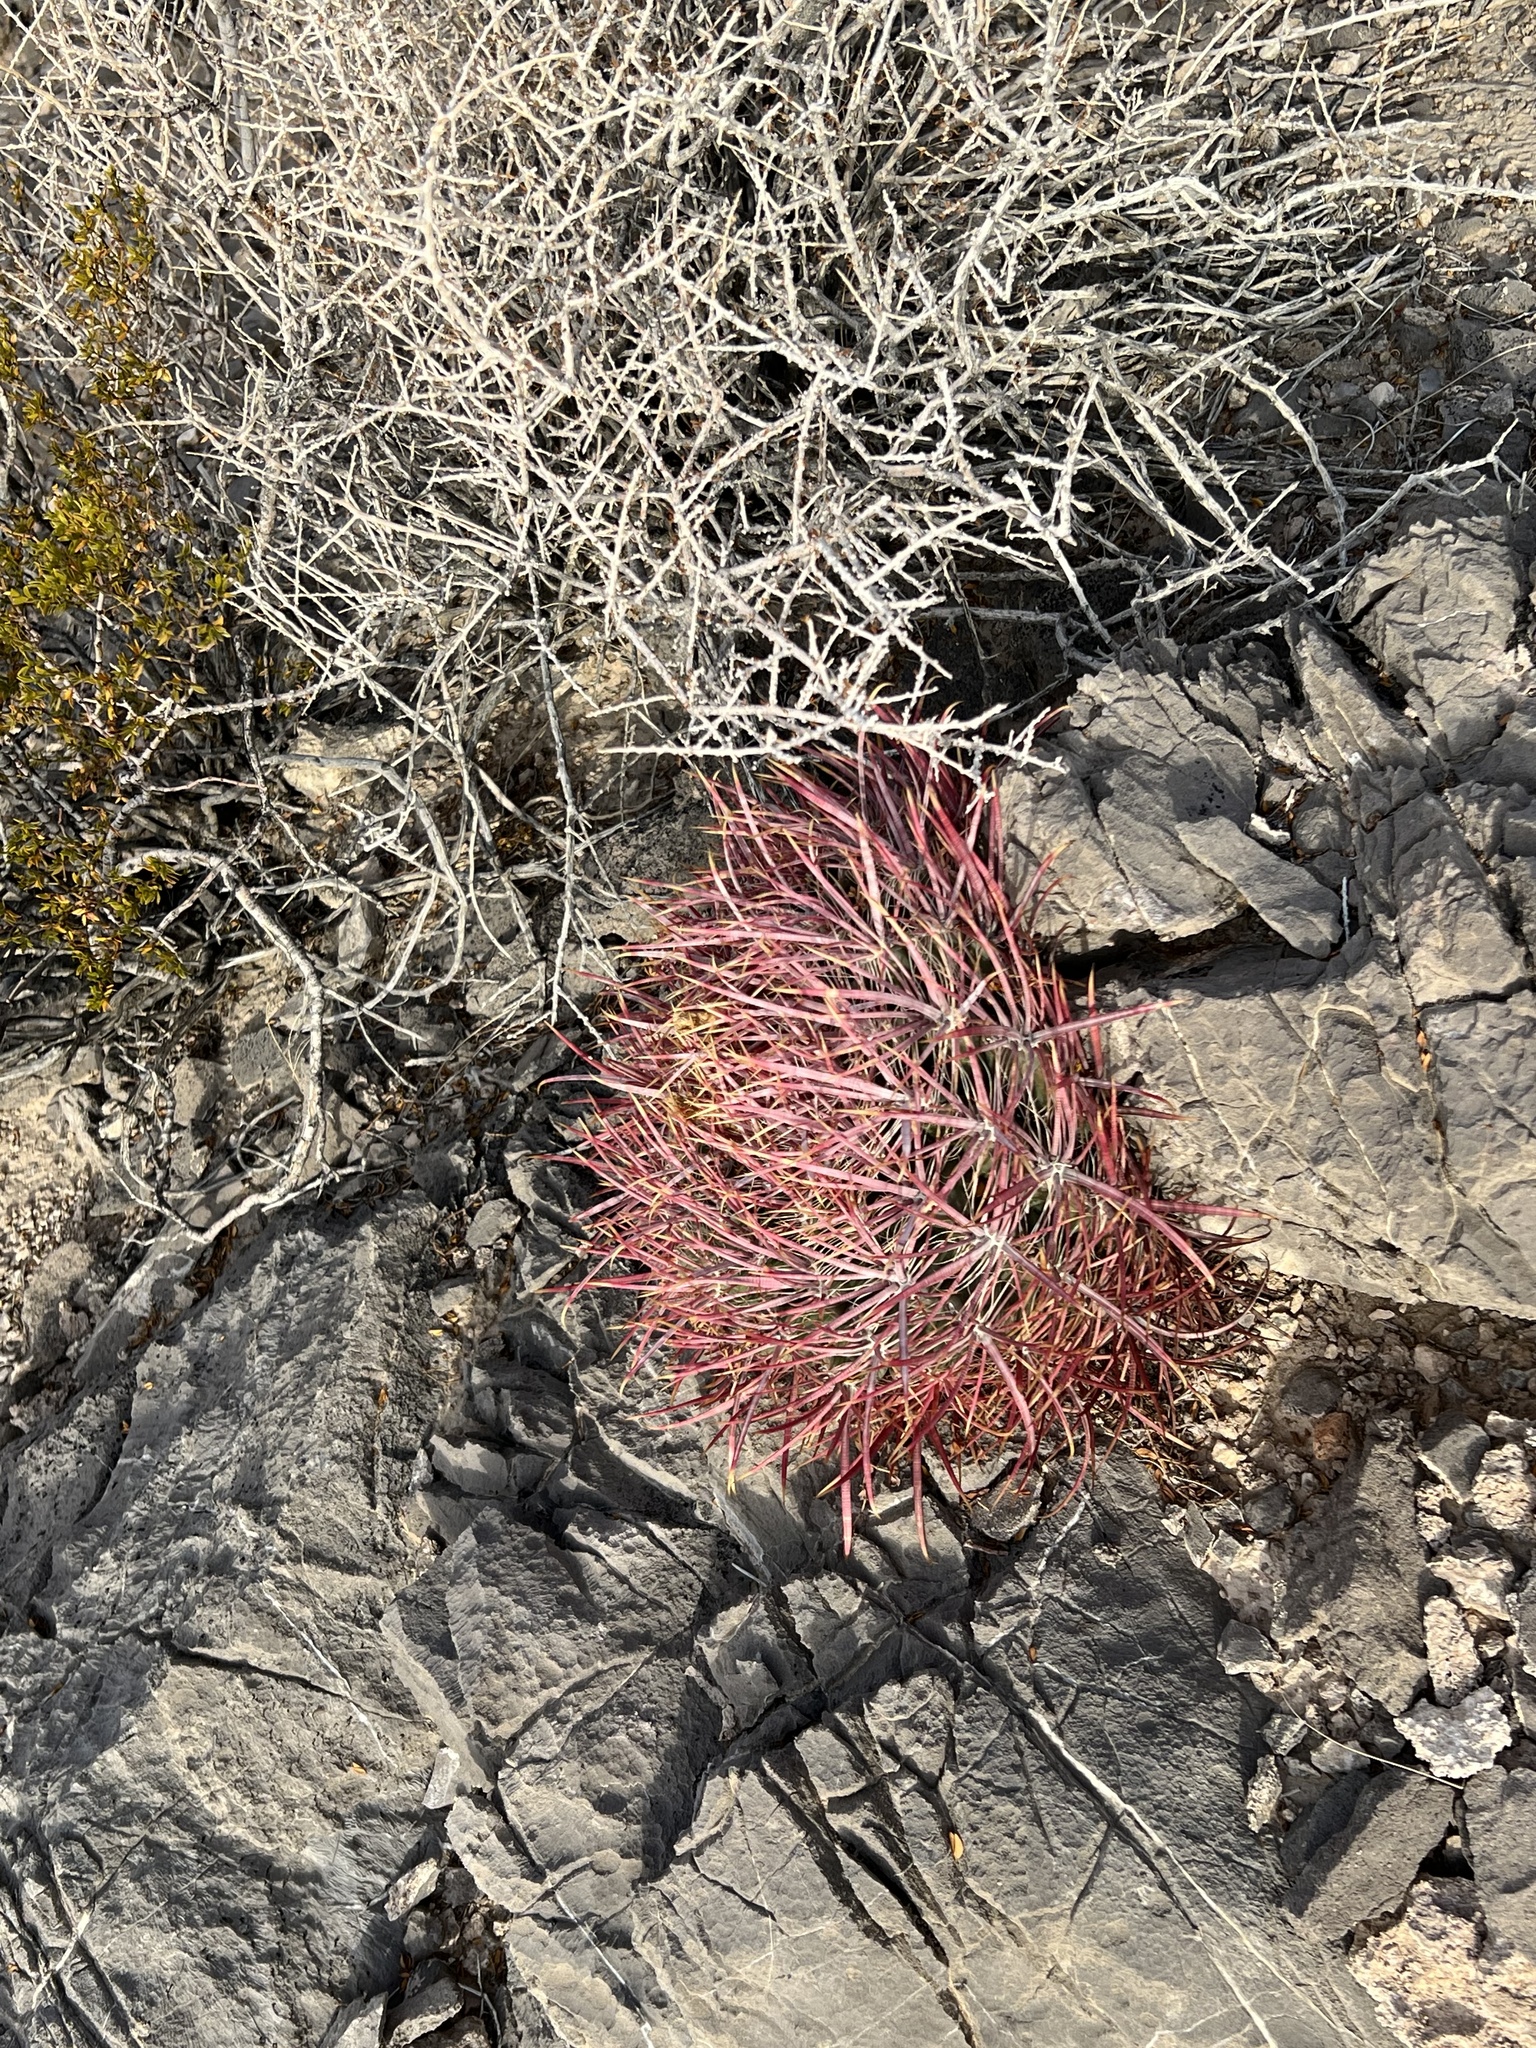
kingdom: Plantae
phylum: Tracheophyta
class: Magnoliopsida
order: Caryophyllales
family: Cactaceae
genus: Ferocactus
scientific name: Ferocactus cylindraceus
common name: California barrel cactus
